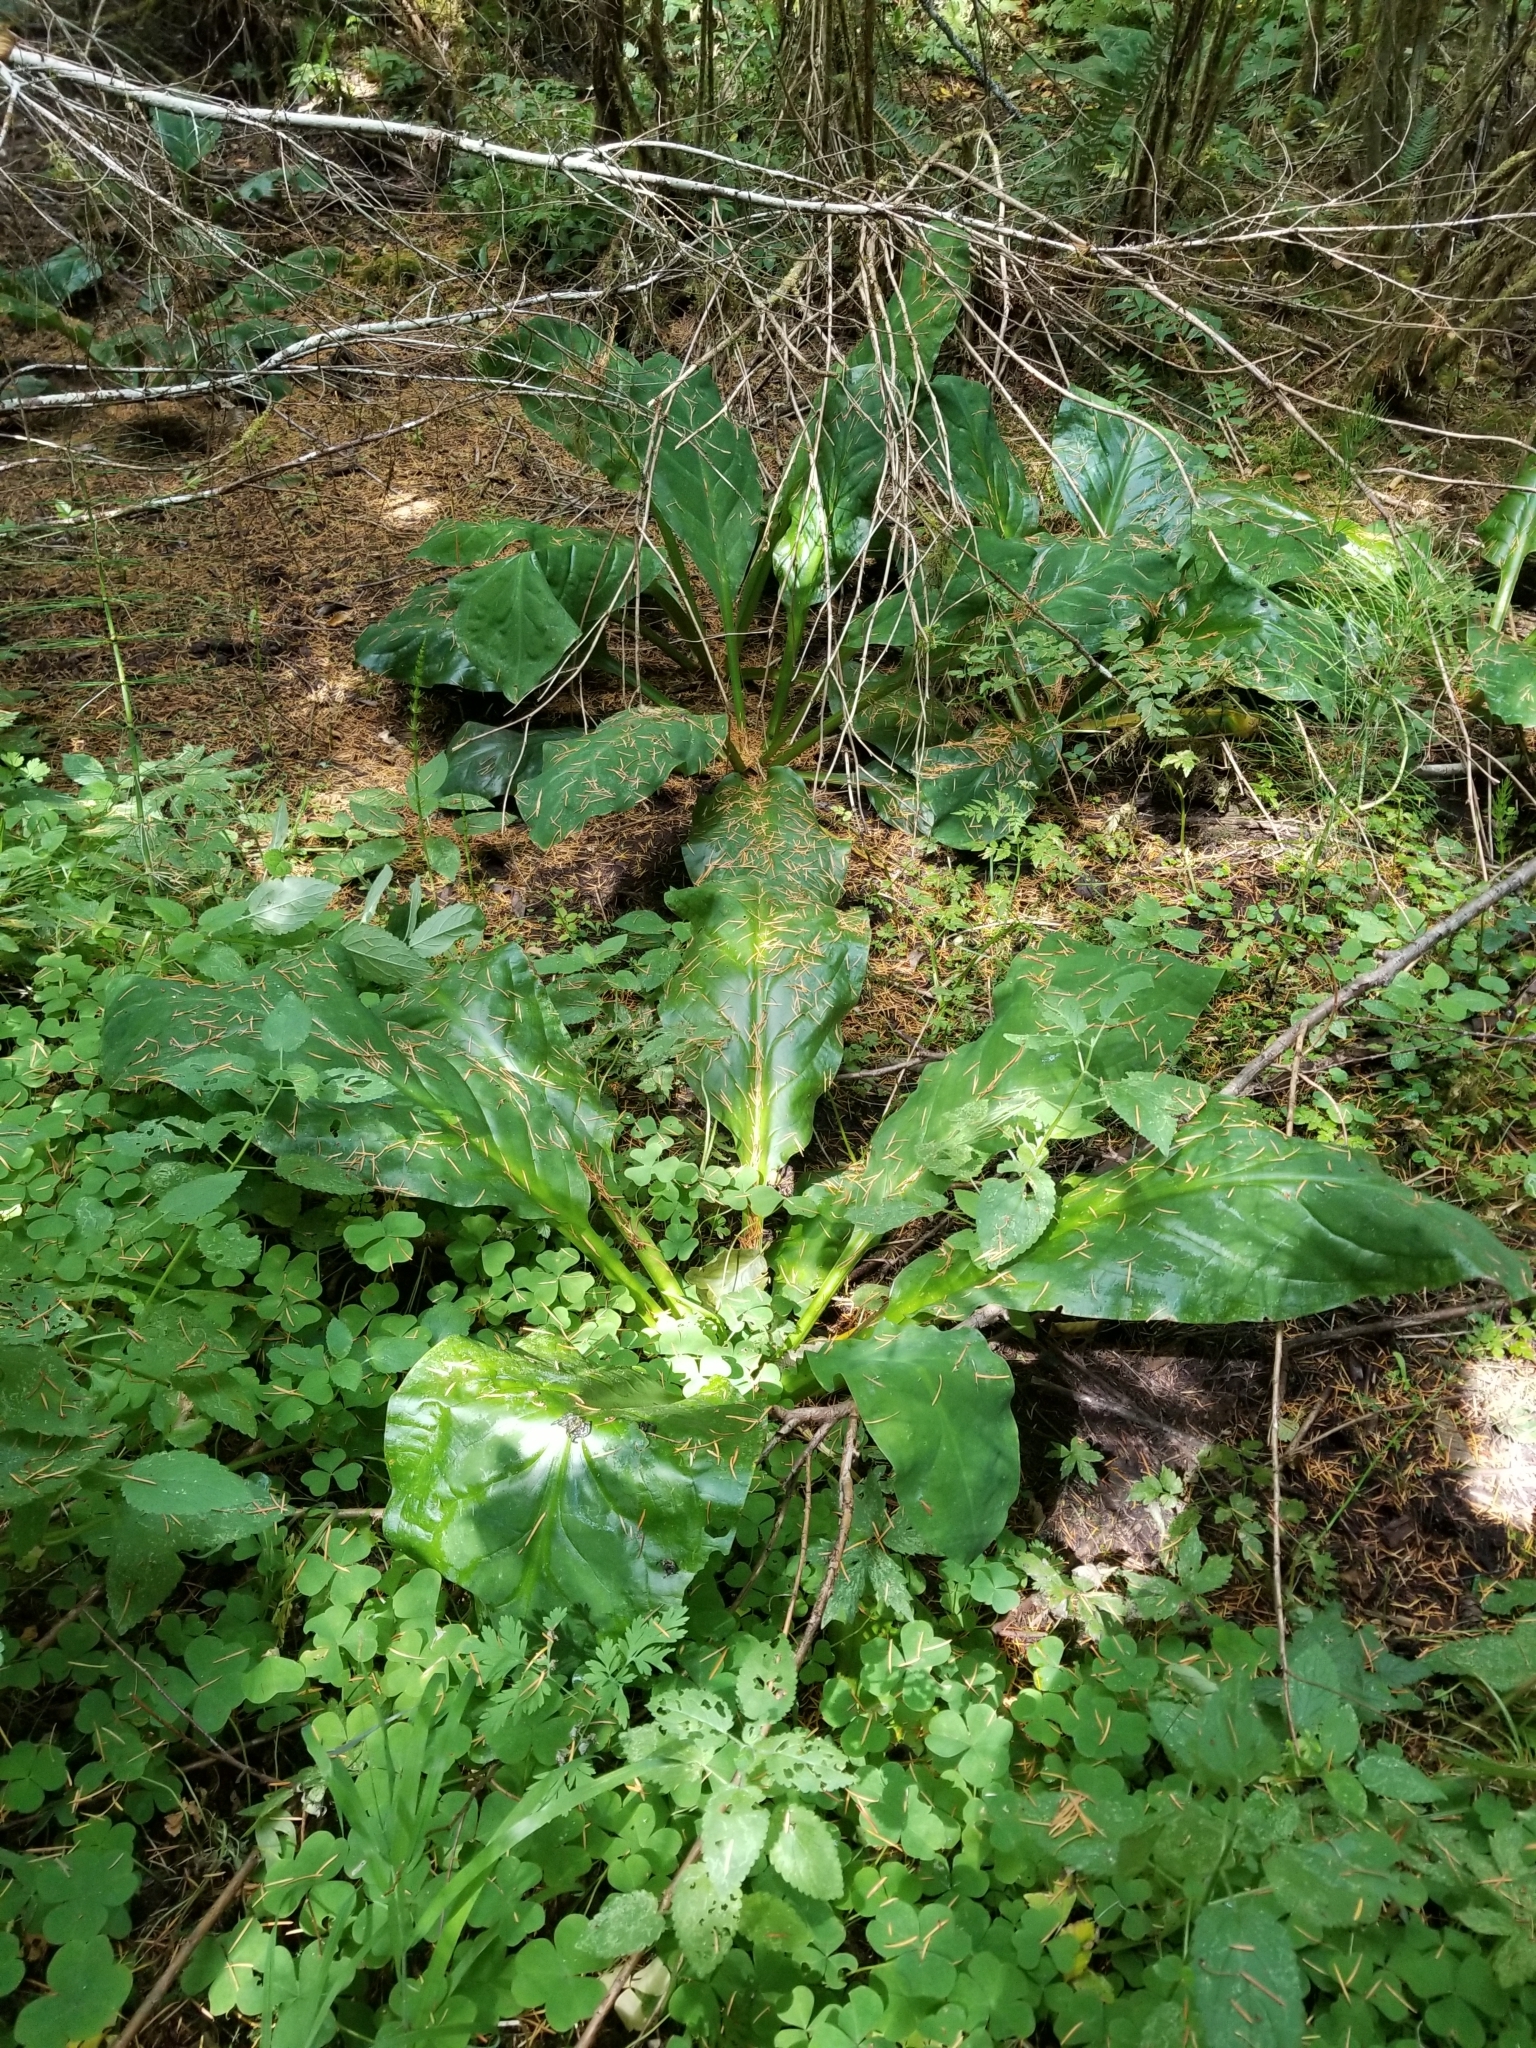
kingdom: Plantae
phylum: Tracheophyta
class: Liliopsida
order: Alismatales
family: Araceae
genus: Lysichiton
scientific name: Lysichiton americanus
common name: American skunk cabbage
